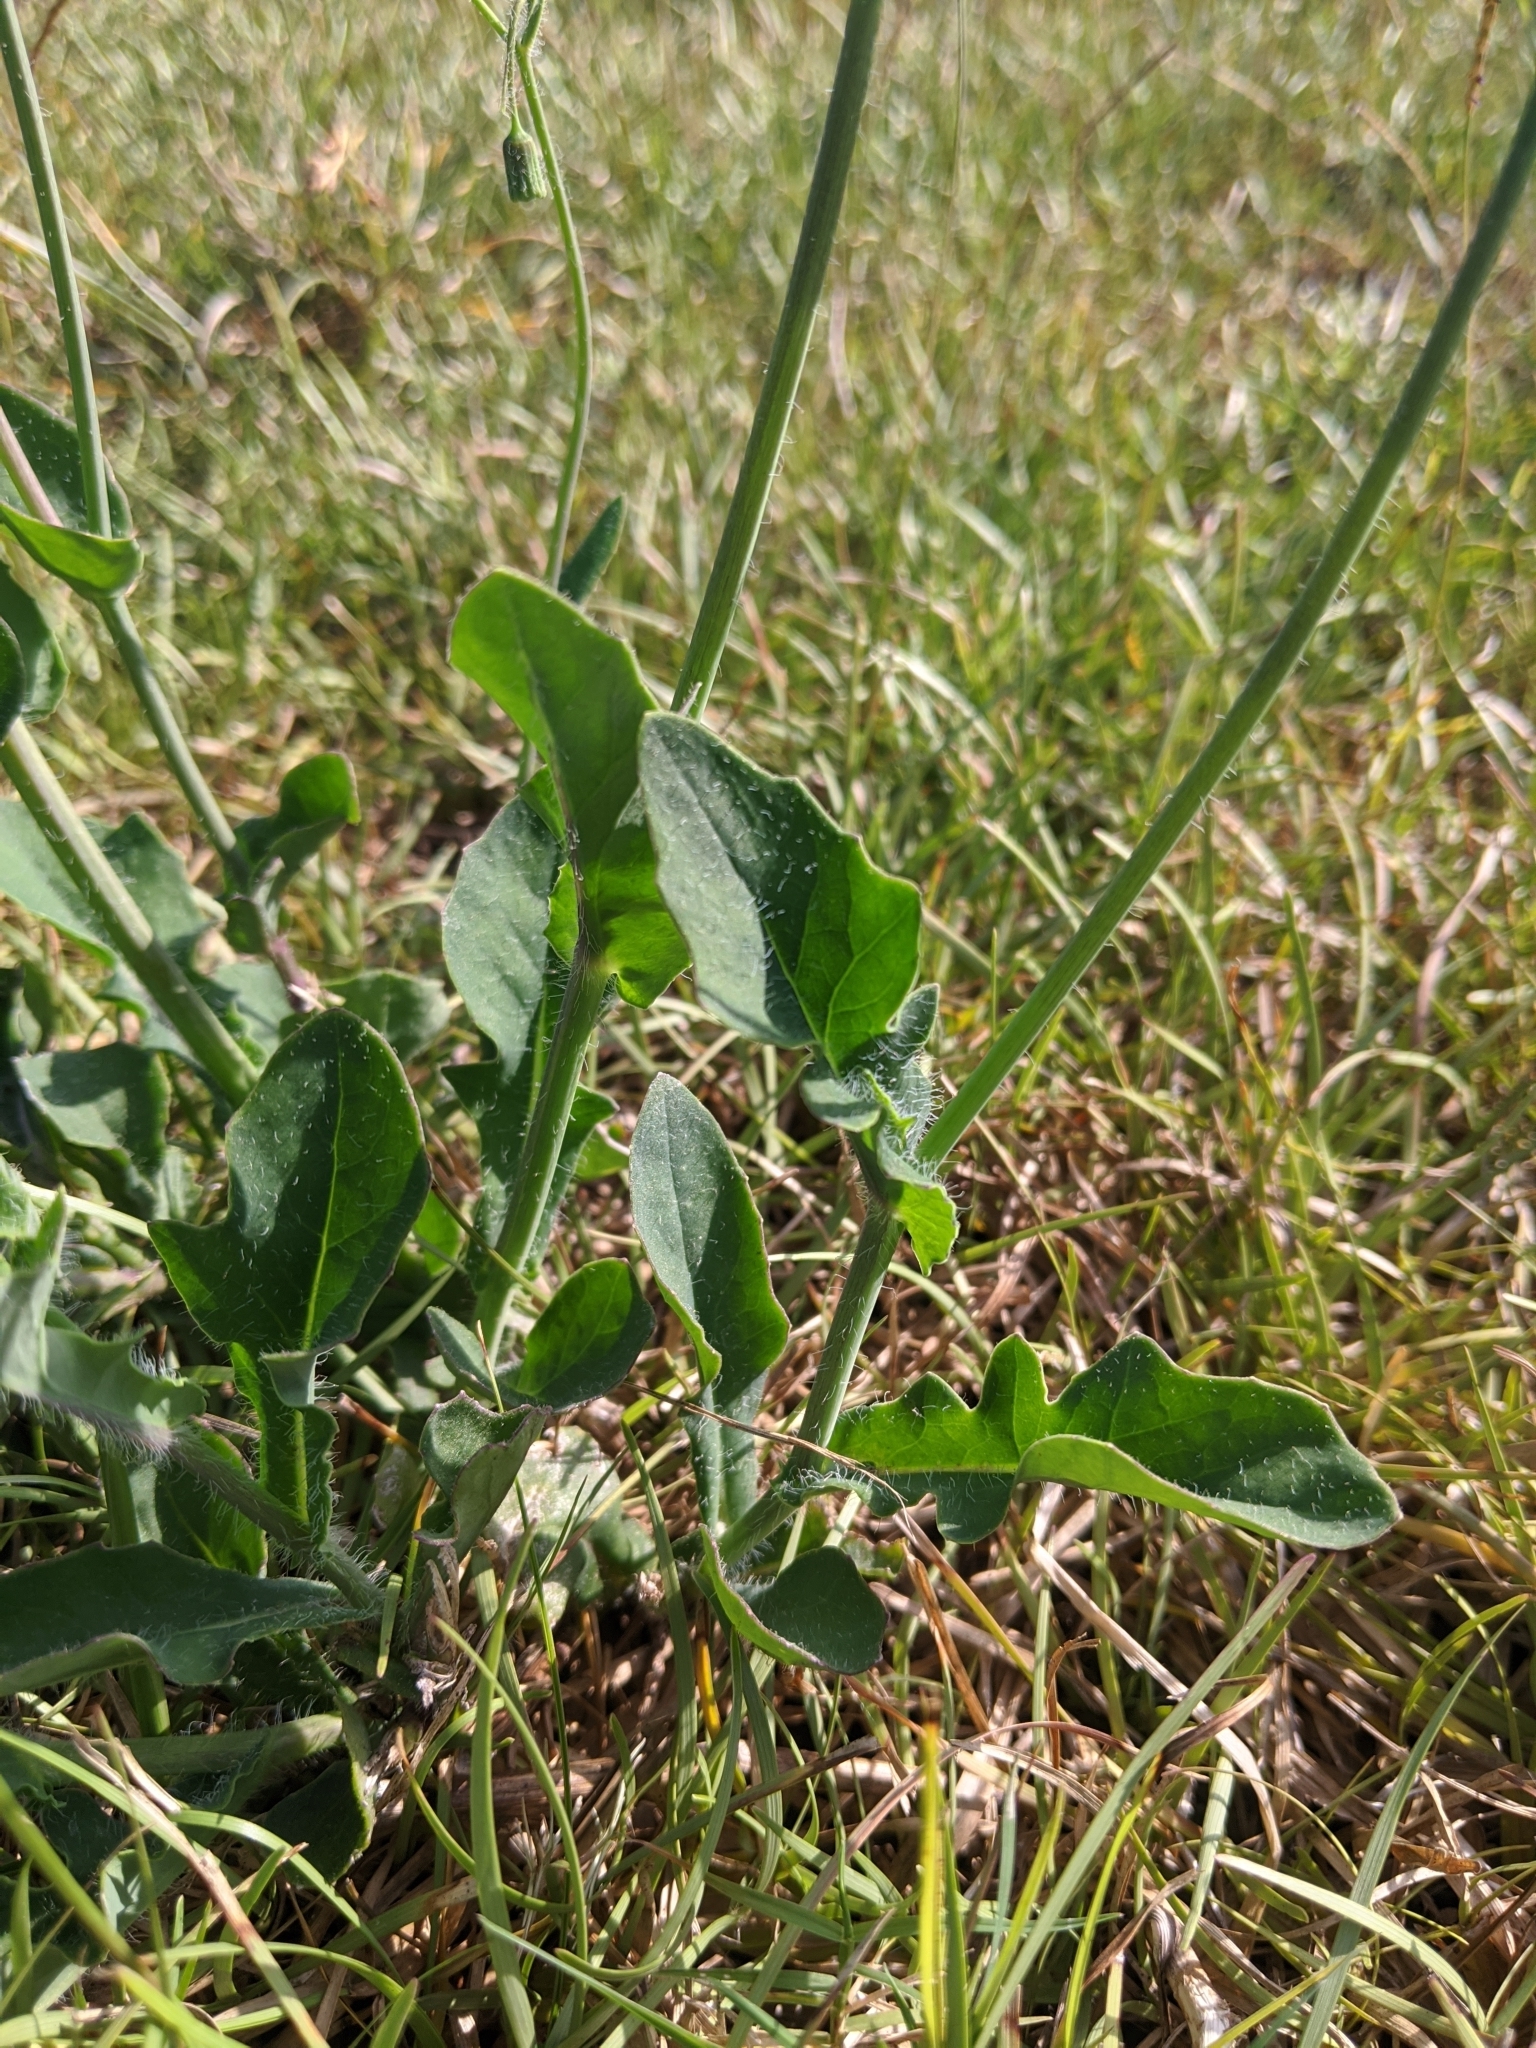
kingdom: Plantae
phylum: Tracheophyta
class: Magnoliopsida
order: Asterales
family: Asteraceae
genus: Emilia
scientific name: Emilia javanica
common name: Tassel-flower
